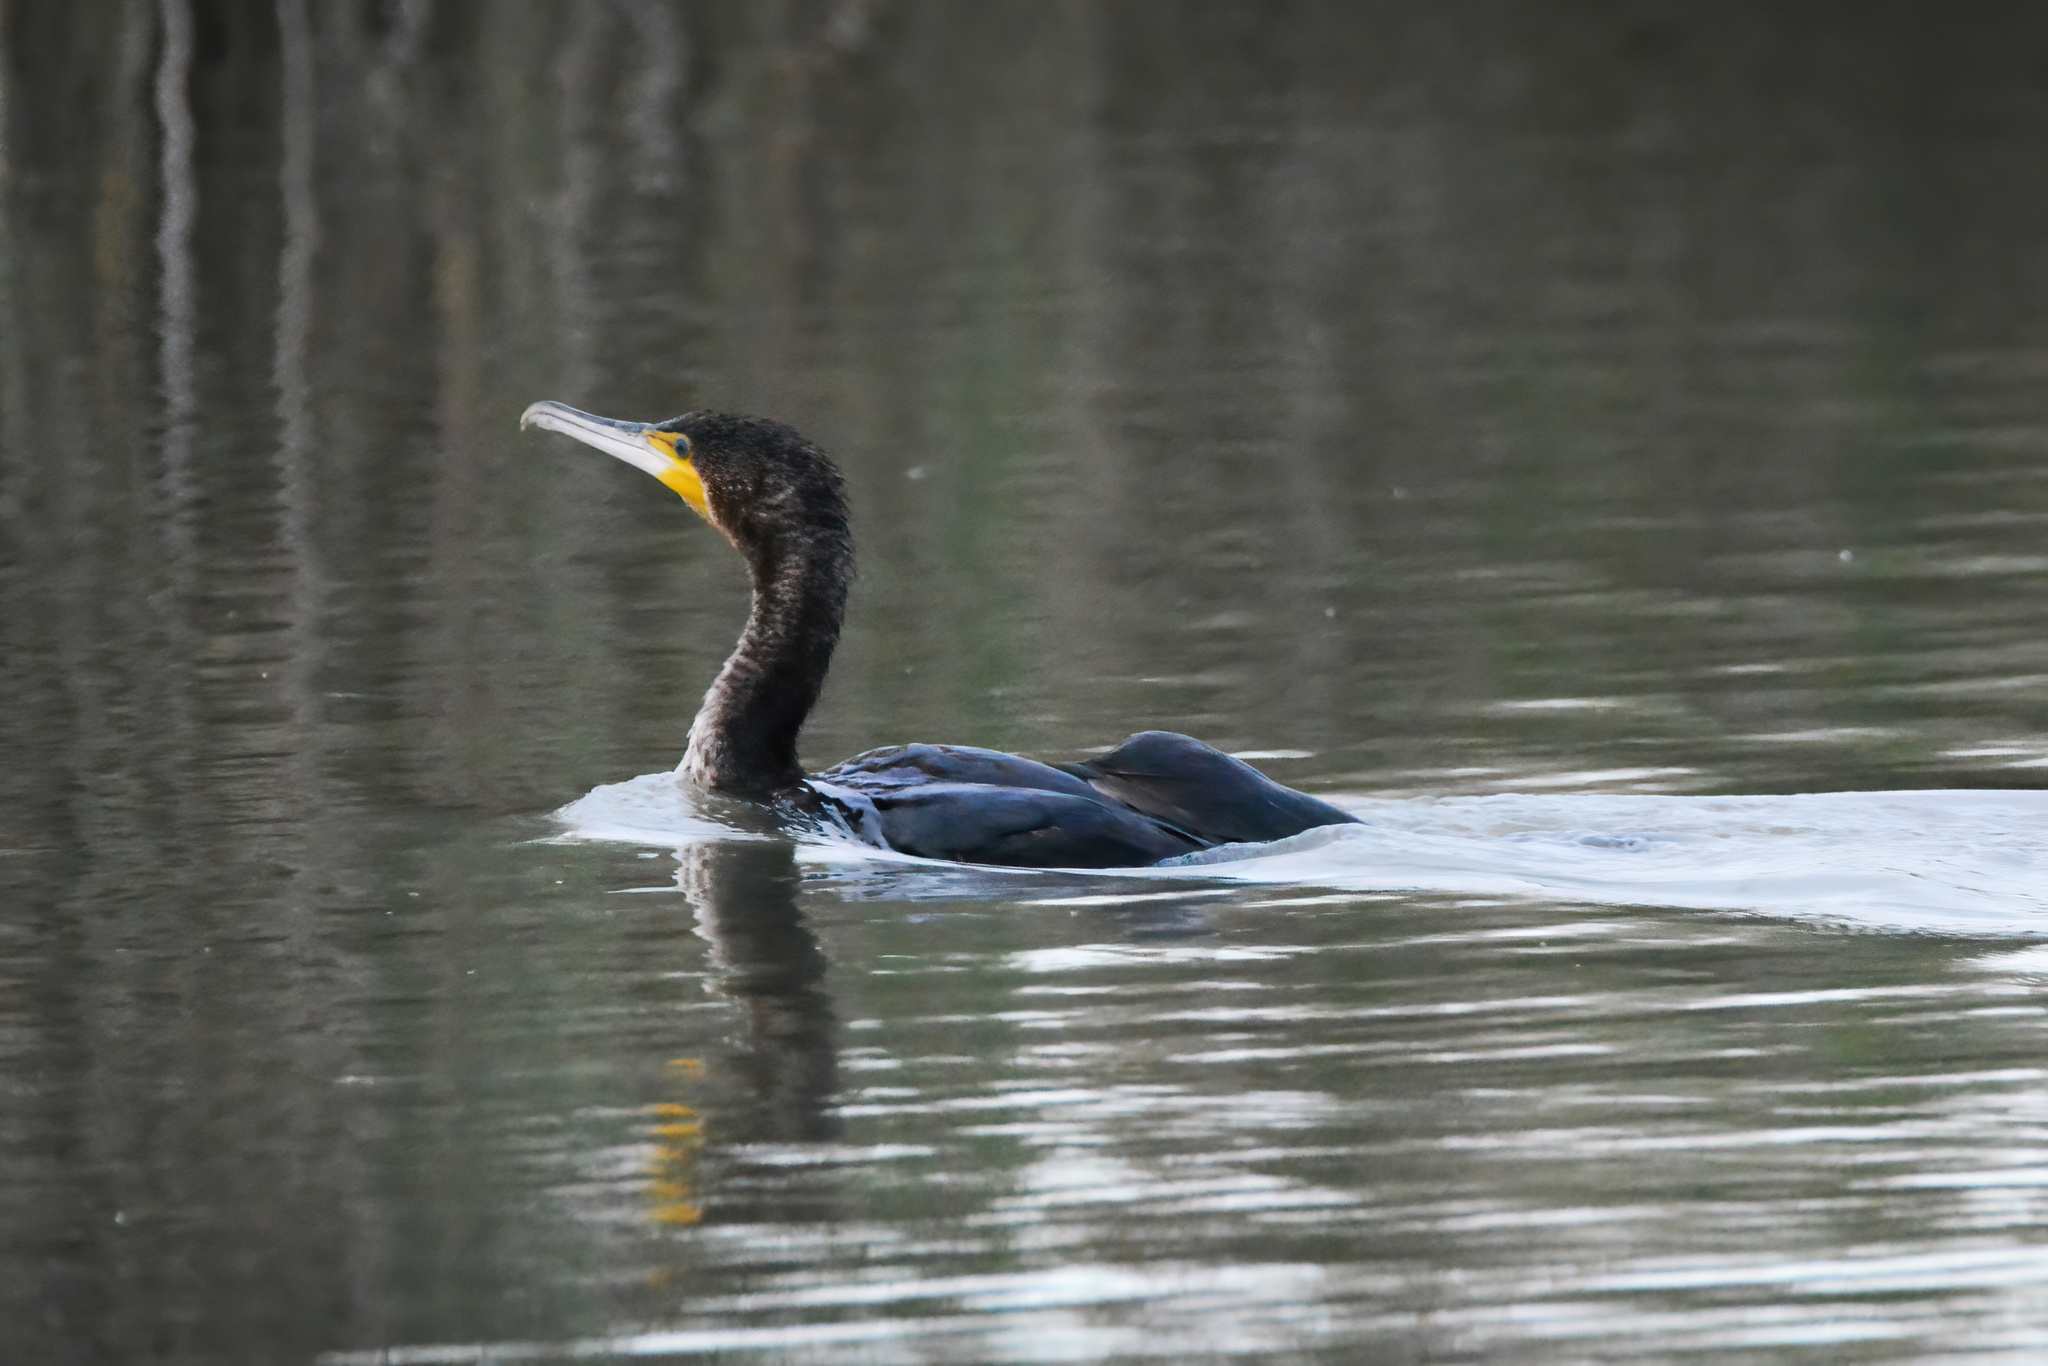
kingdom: Animalia
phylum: Chordata
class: Aves
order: Suliformes
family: Phalacrocoracidae
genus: Phalacrocorax
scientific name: Phalacrocorax carbo
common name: Great cormorant
